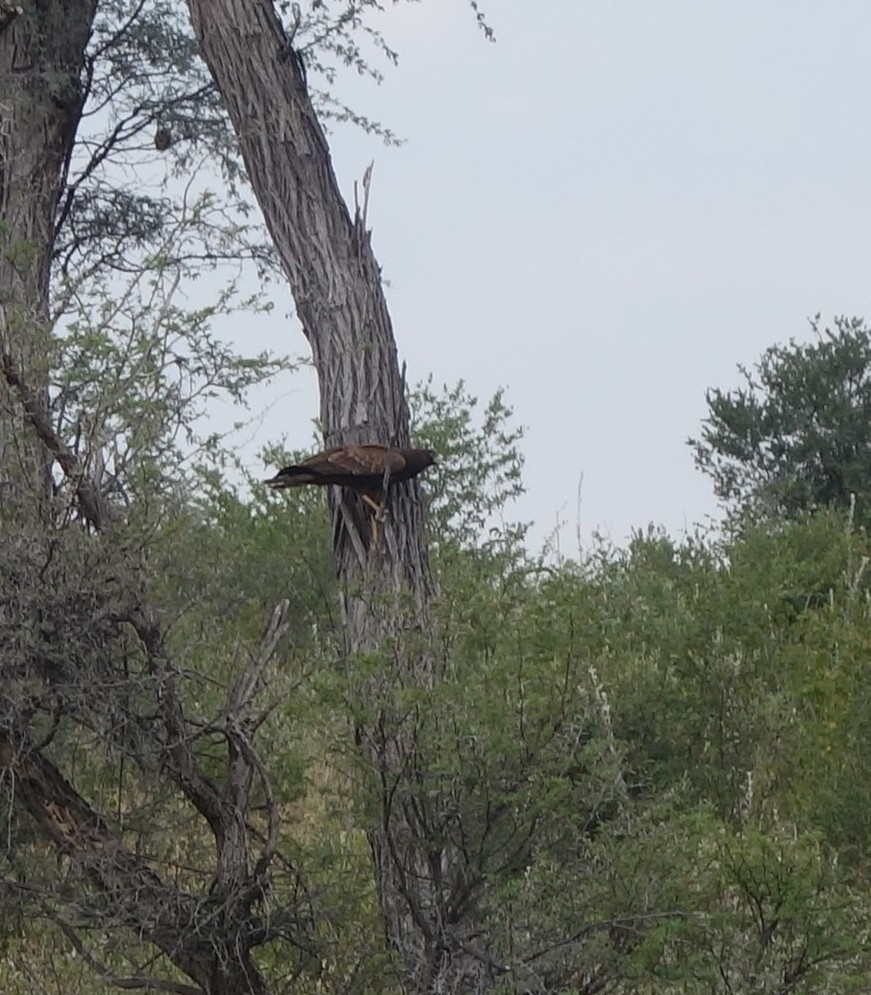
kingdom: Animalia
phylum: Chordata
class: Aves
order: Accipitriformes
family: Accipitridae
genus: Polyboroides
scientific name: Polyboroides typus
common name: African harrier-hawk
